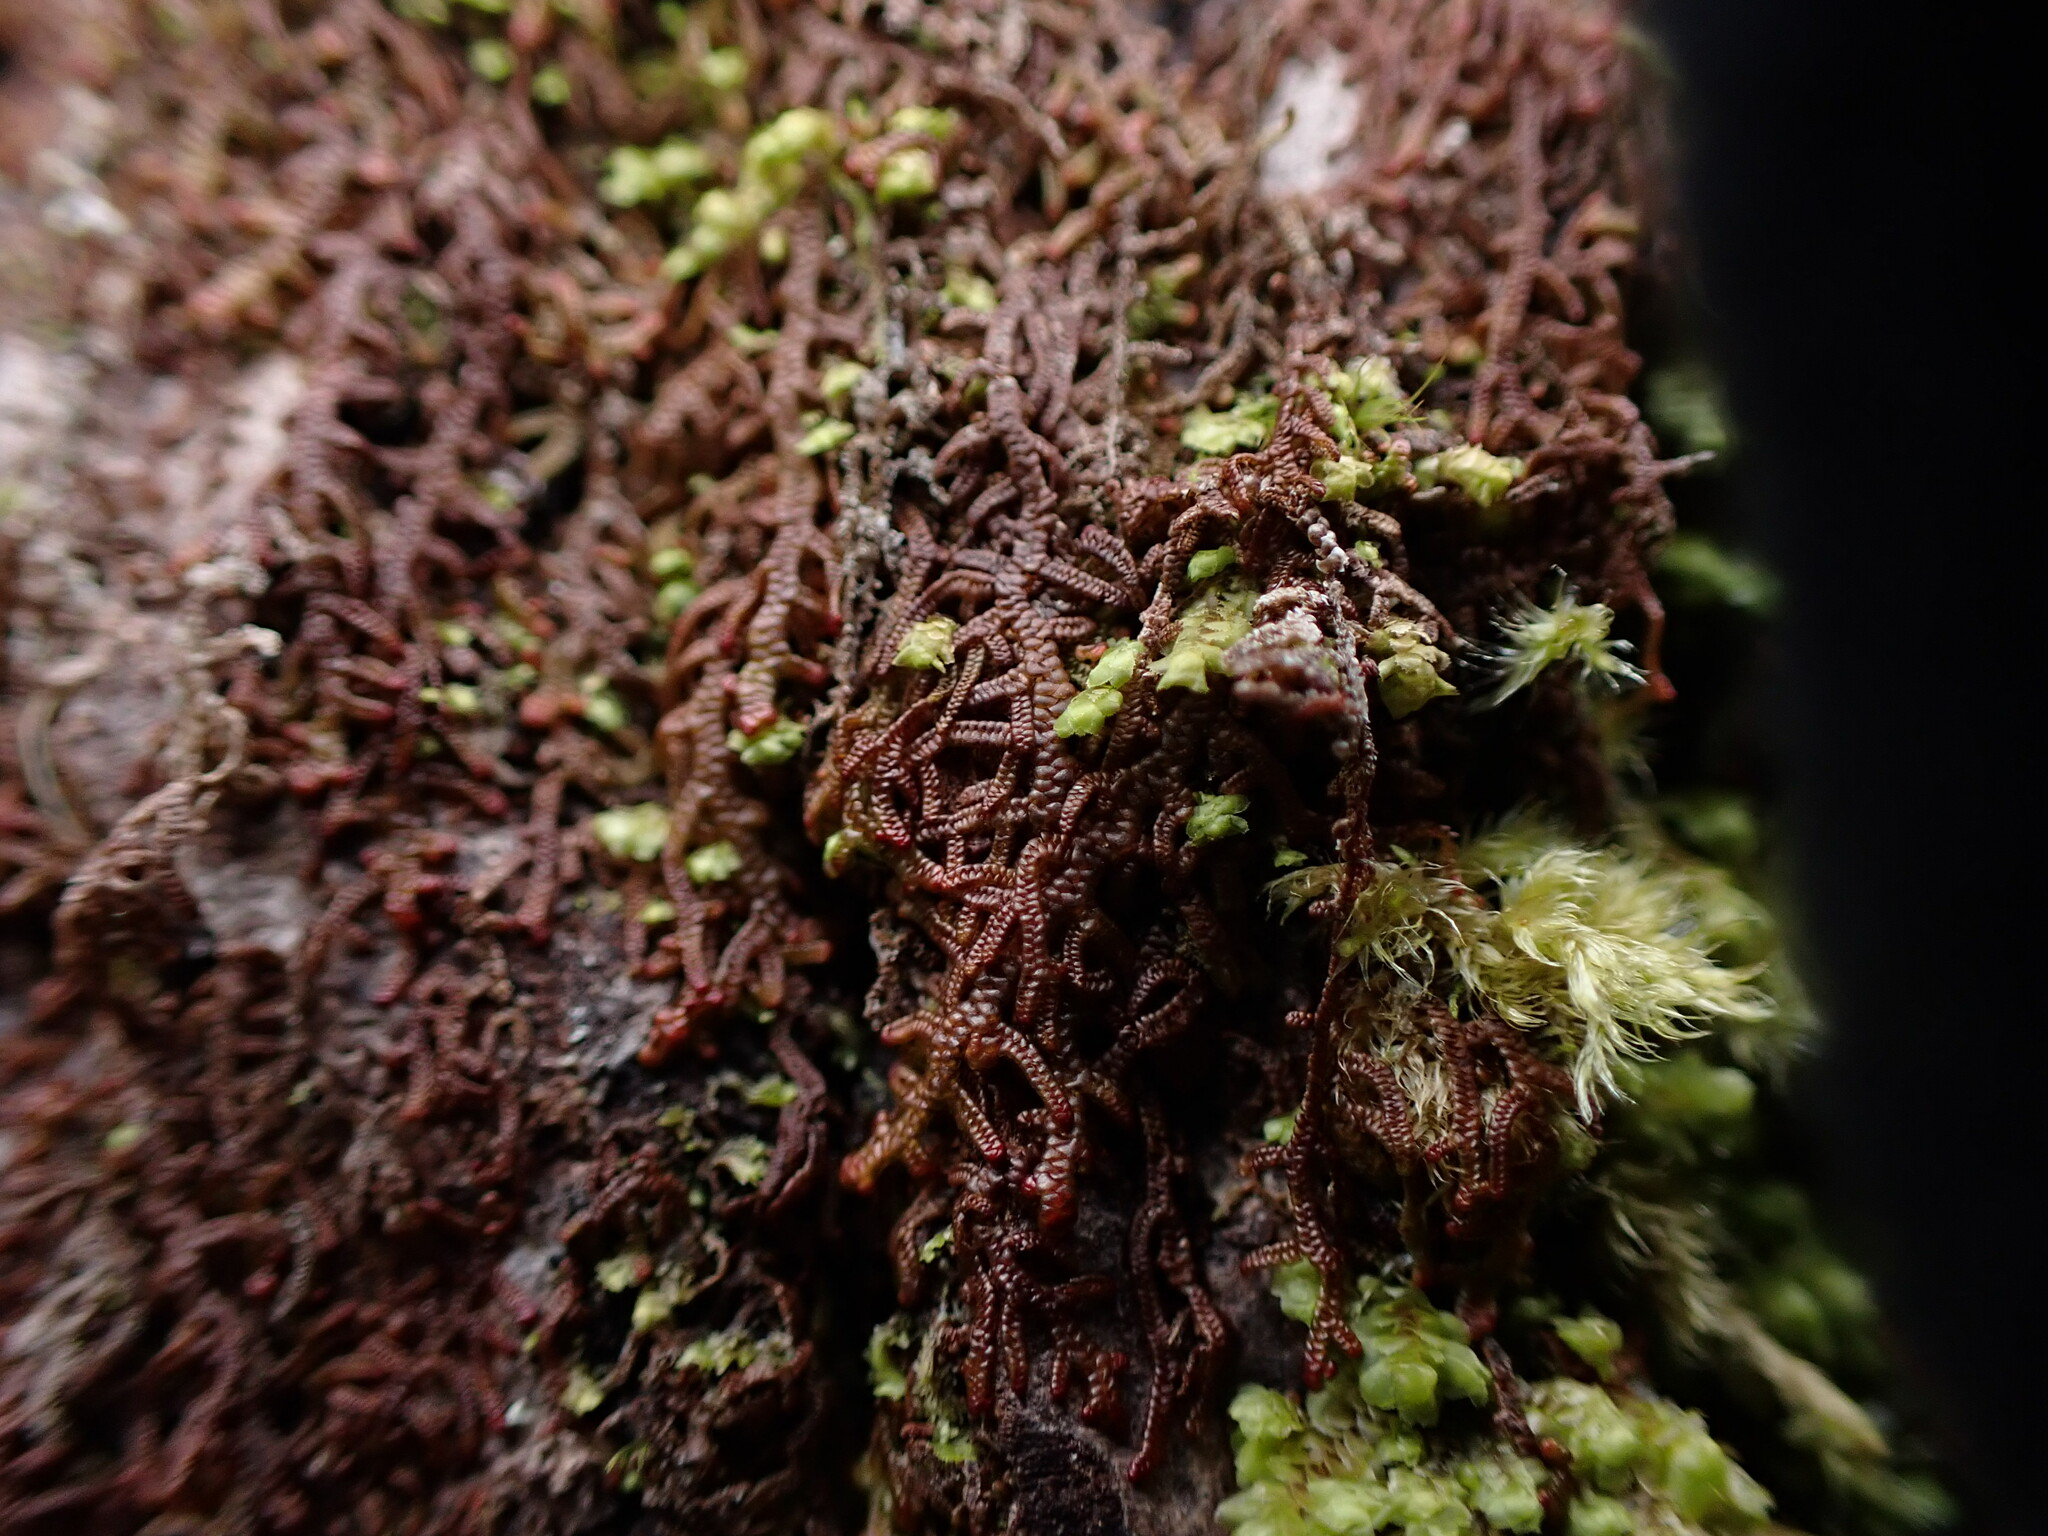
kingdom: Plantae
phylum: Marchantiophyta
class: Jungermanniopsida
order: Porellales
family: Frullaniaceae
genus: Frullania
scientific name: Frullania nisquallensis
